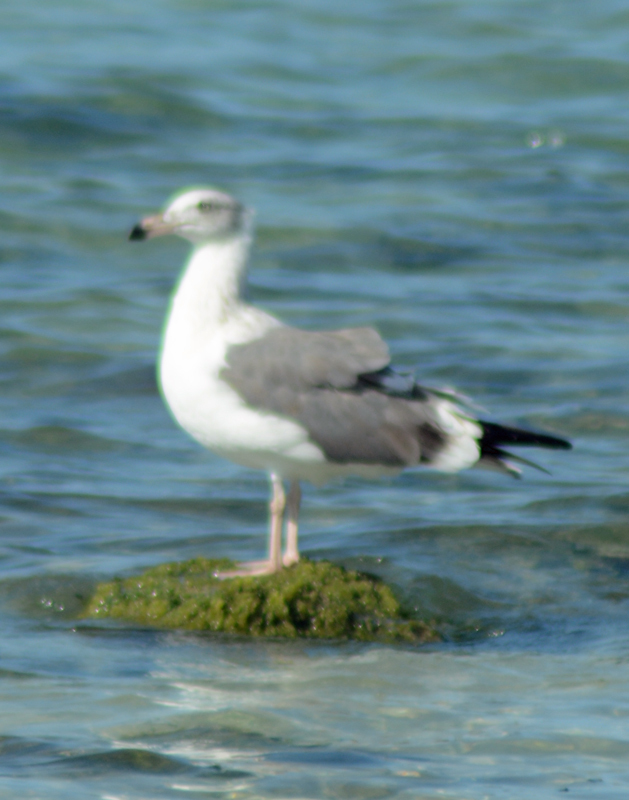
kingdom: Animalia
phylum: Chordata
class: Aves
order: Charadriiformes
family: Laridae
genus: Larus
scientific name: Larus occidentalis
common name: Western gull
